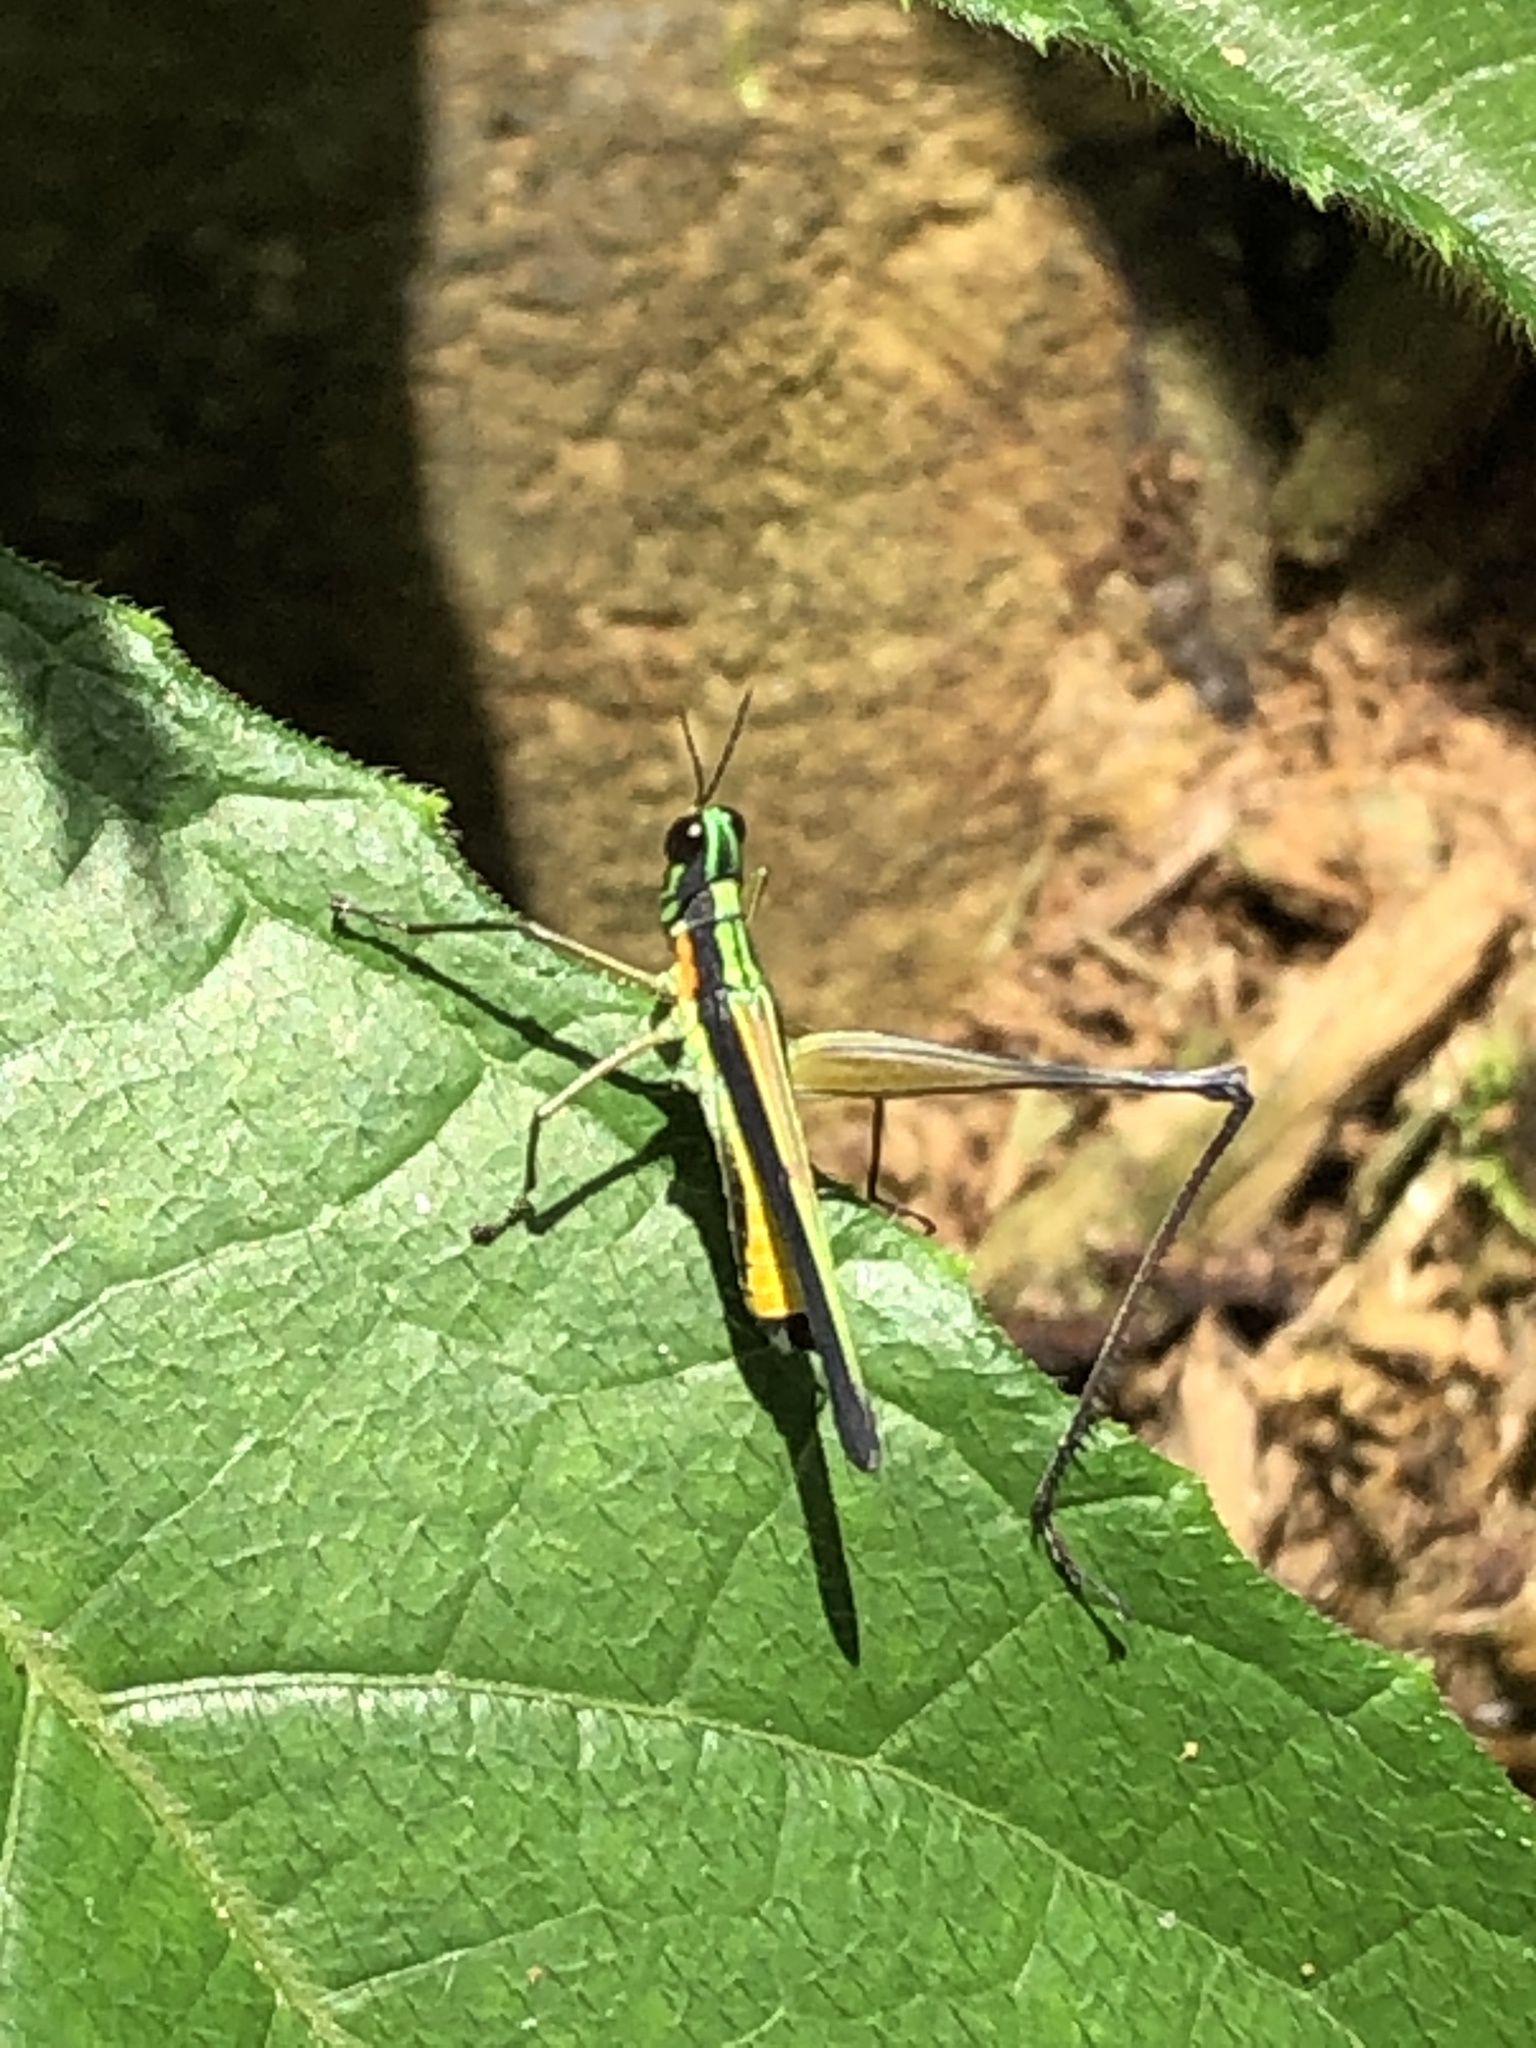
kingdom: Animalia
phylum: Arthropoda
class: Insecta
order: Orthoptera
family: Eumastacidae
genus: Paramastax
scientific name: Paramastax nigra
